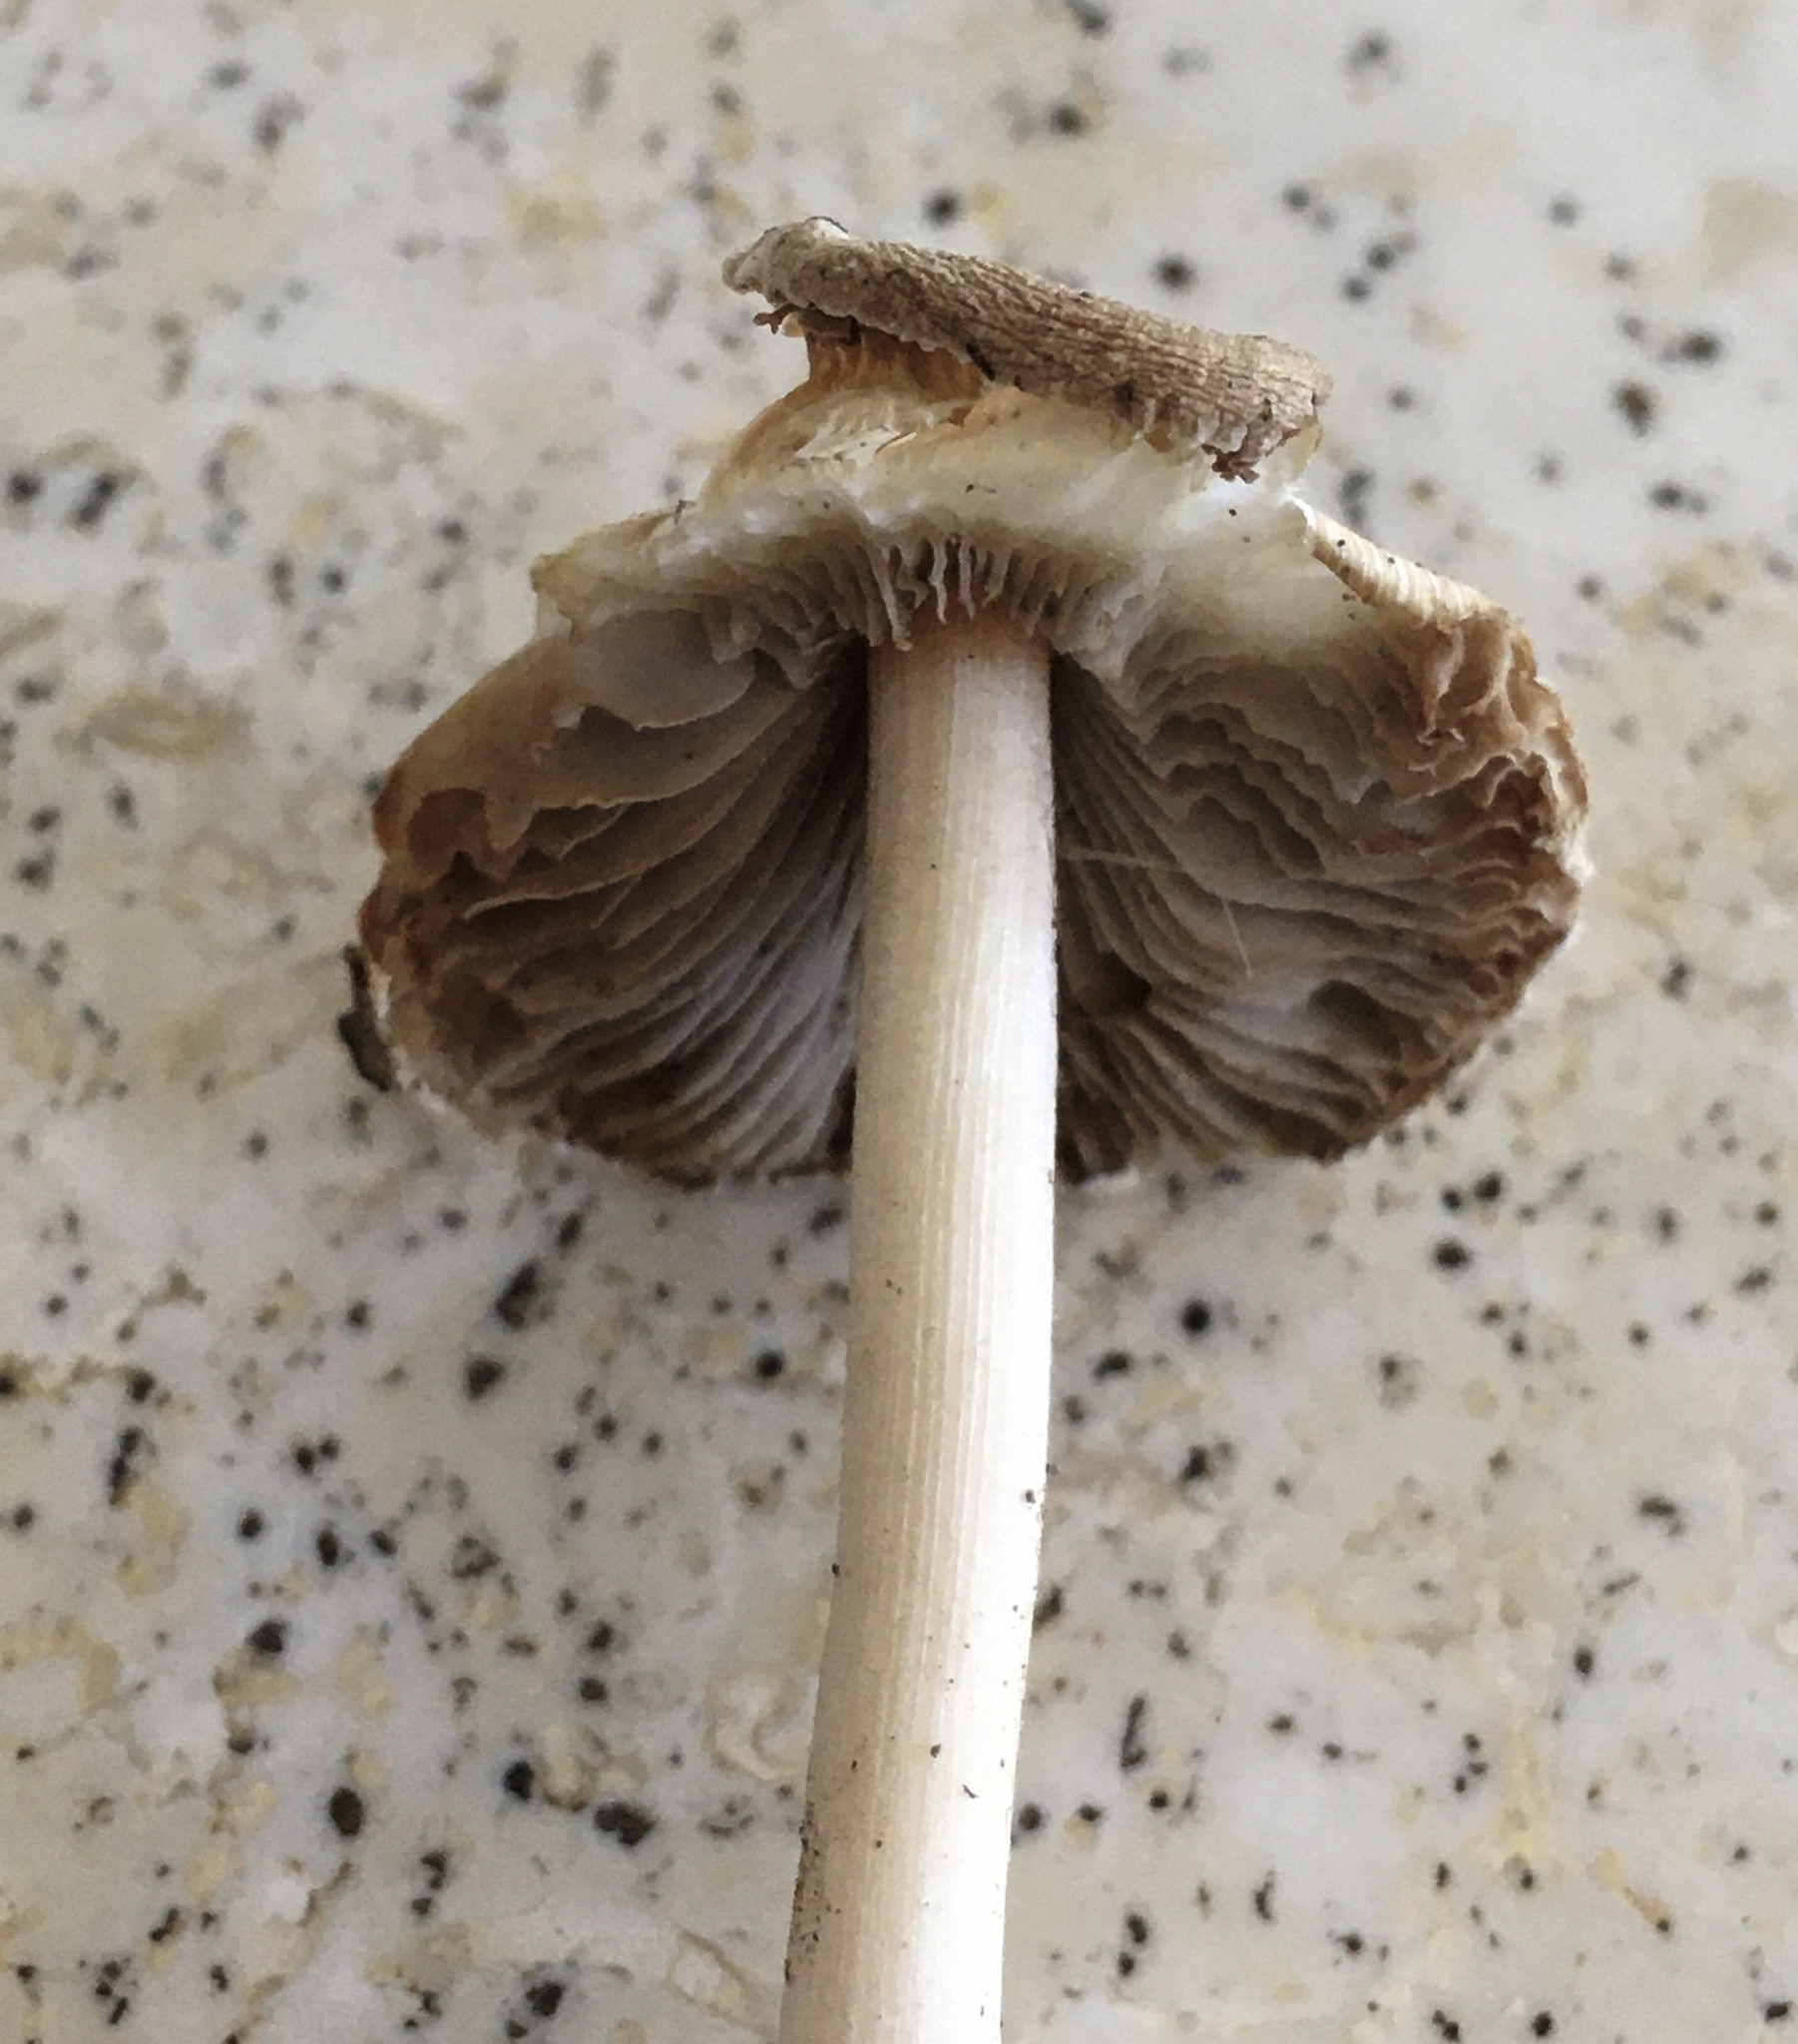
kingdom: Fungi
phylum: Basidiomycota
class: Agaricomycetes
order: Agaricales
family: Inocybaceae
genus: Inocybe
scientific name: Inocybe velicopia
